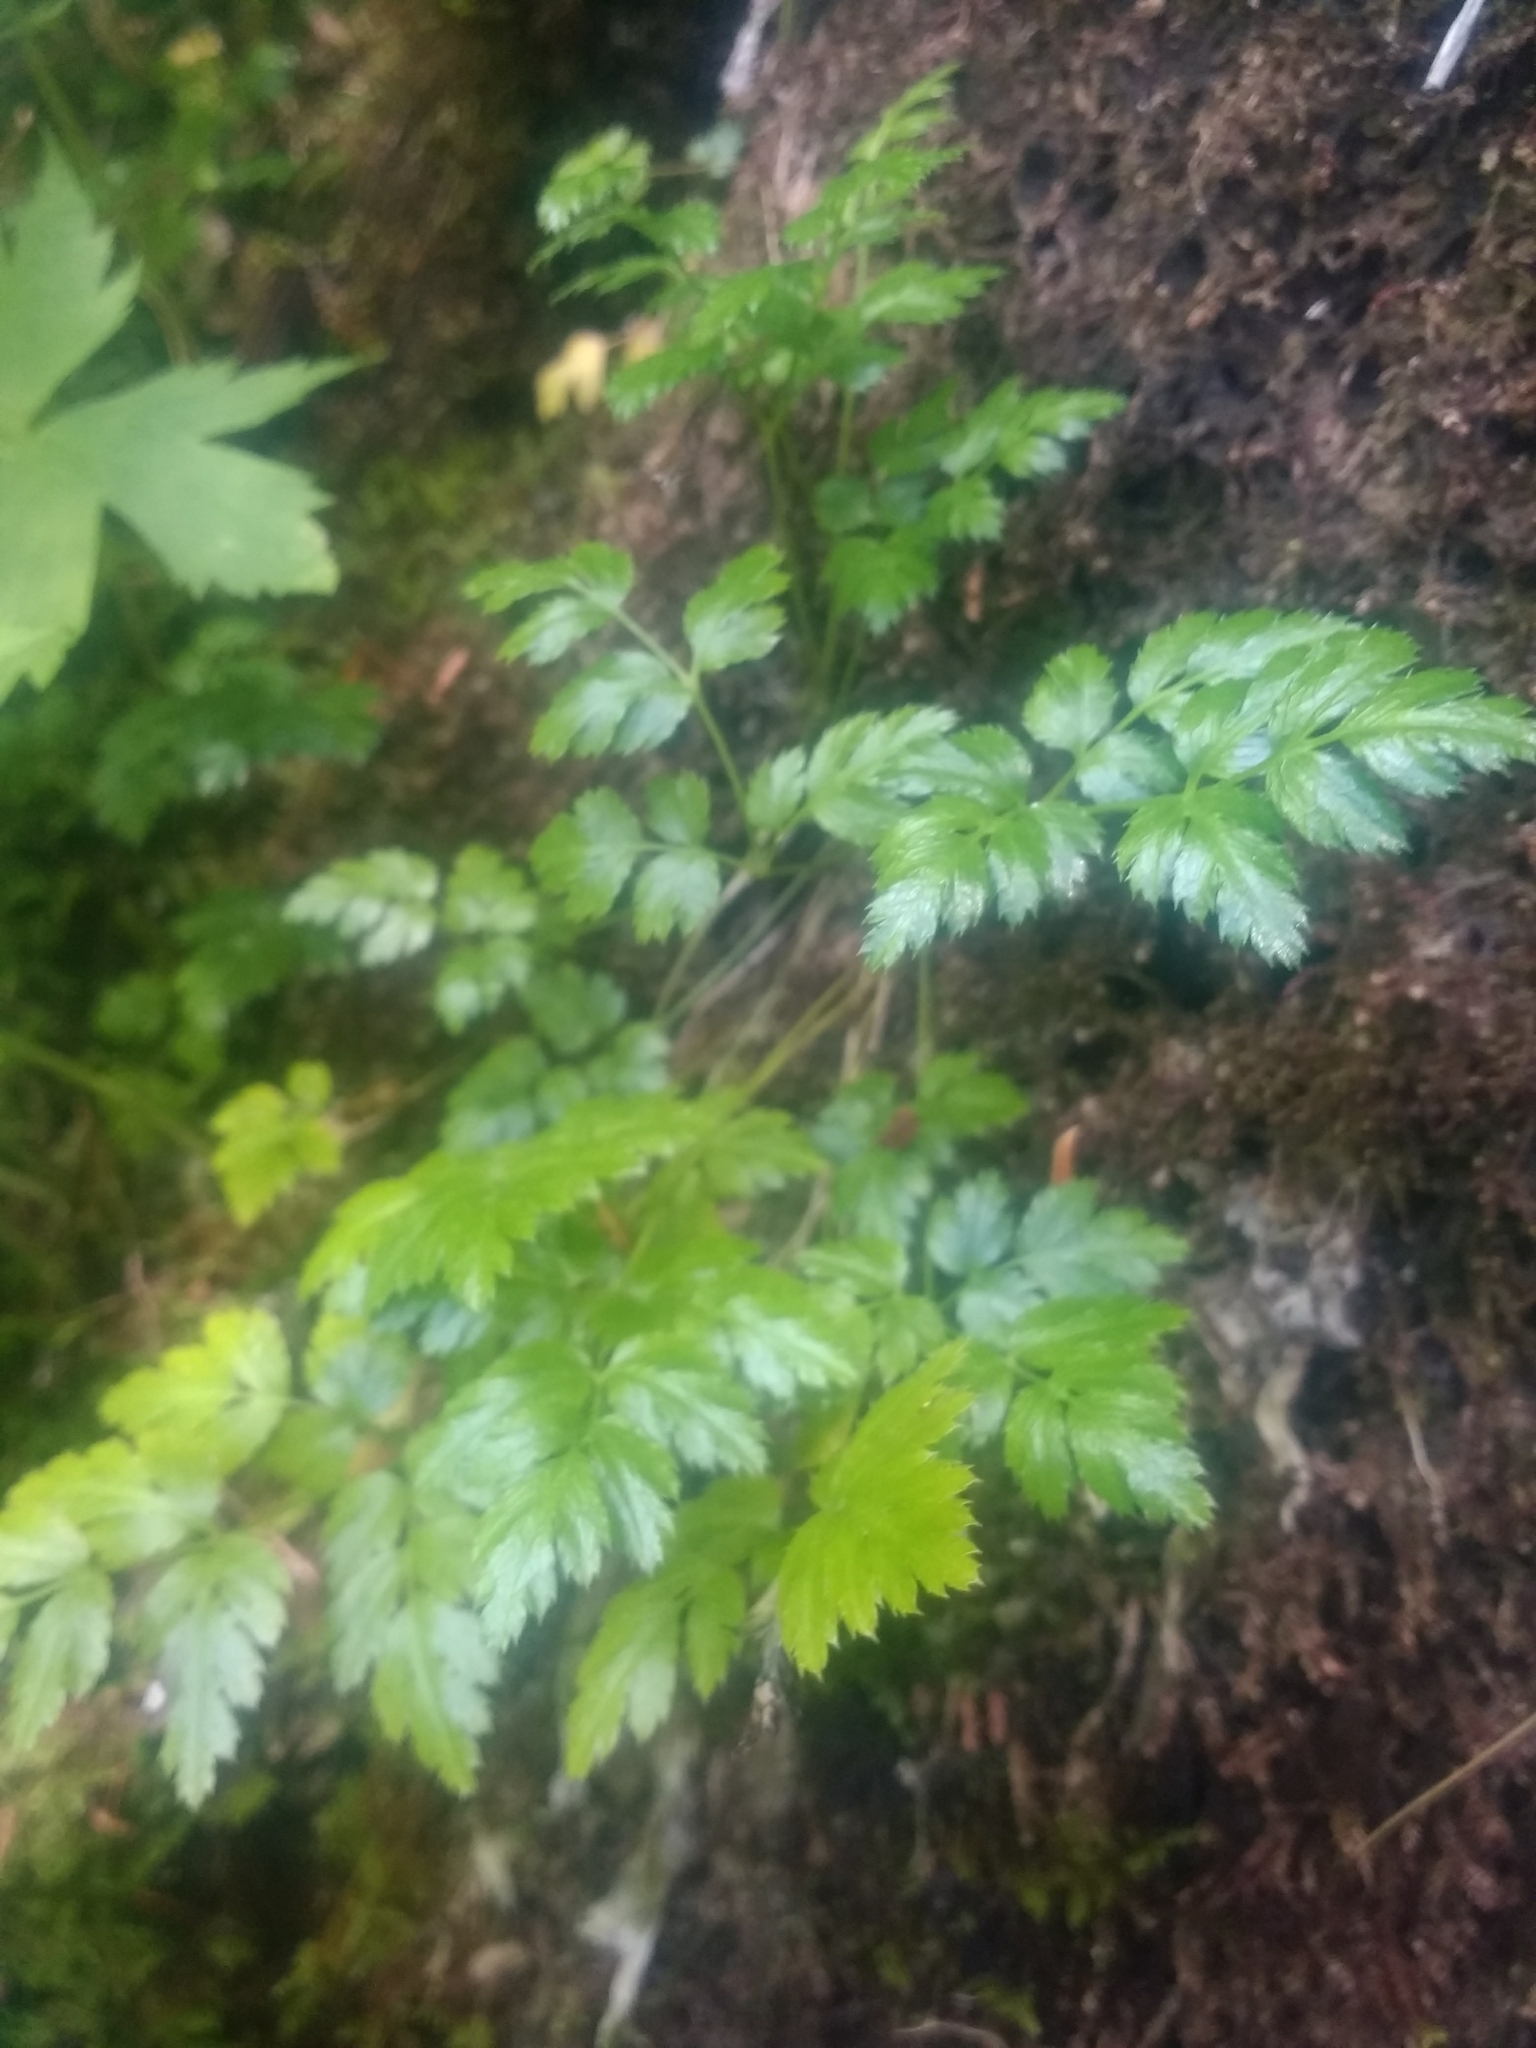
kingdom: Plantae
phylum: Tracheophyta
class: Magnoliopsida
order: Ranunculales
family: Ranunculaceae
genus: Coptis
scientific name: Coptis aspleniifolia
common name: Fern-leaved goldthread
